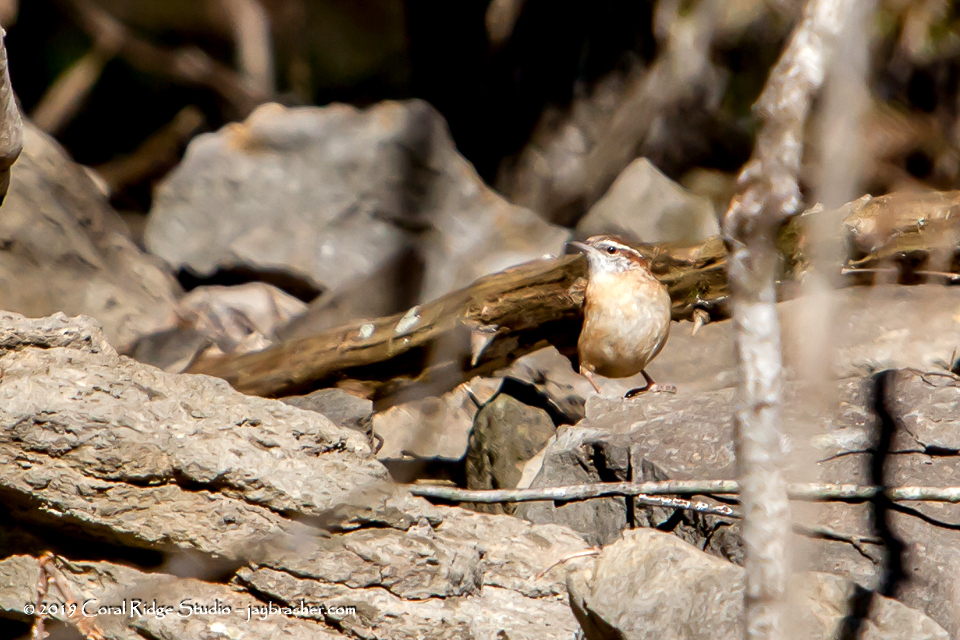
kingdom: Animalia
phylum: Chordata
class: Aves
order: Passeriformes
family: Troglodytidae
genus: Thryothorus
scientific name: Thryothorus ludovicianus
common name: Carolina wren
